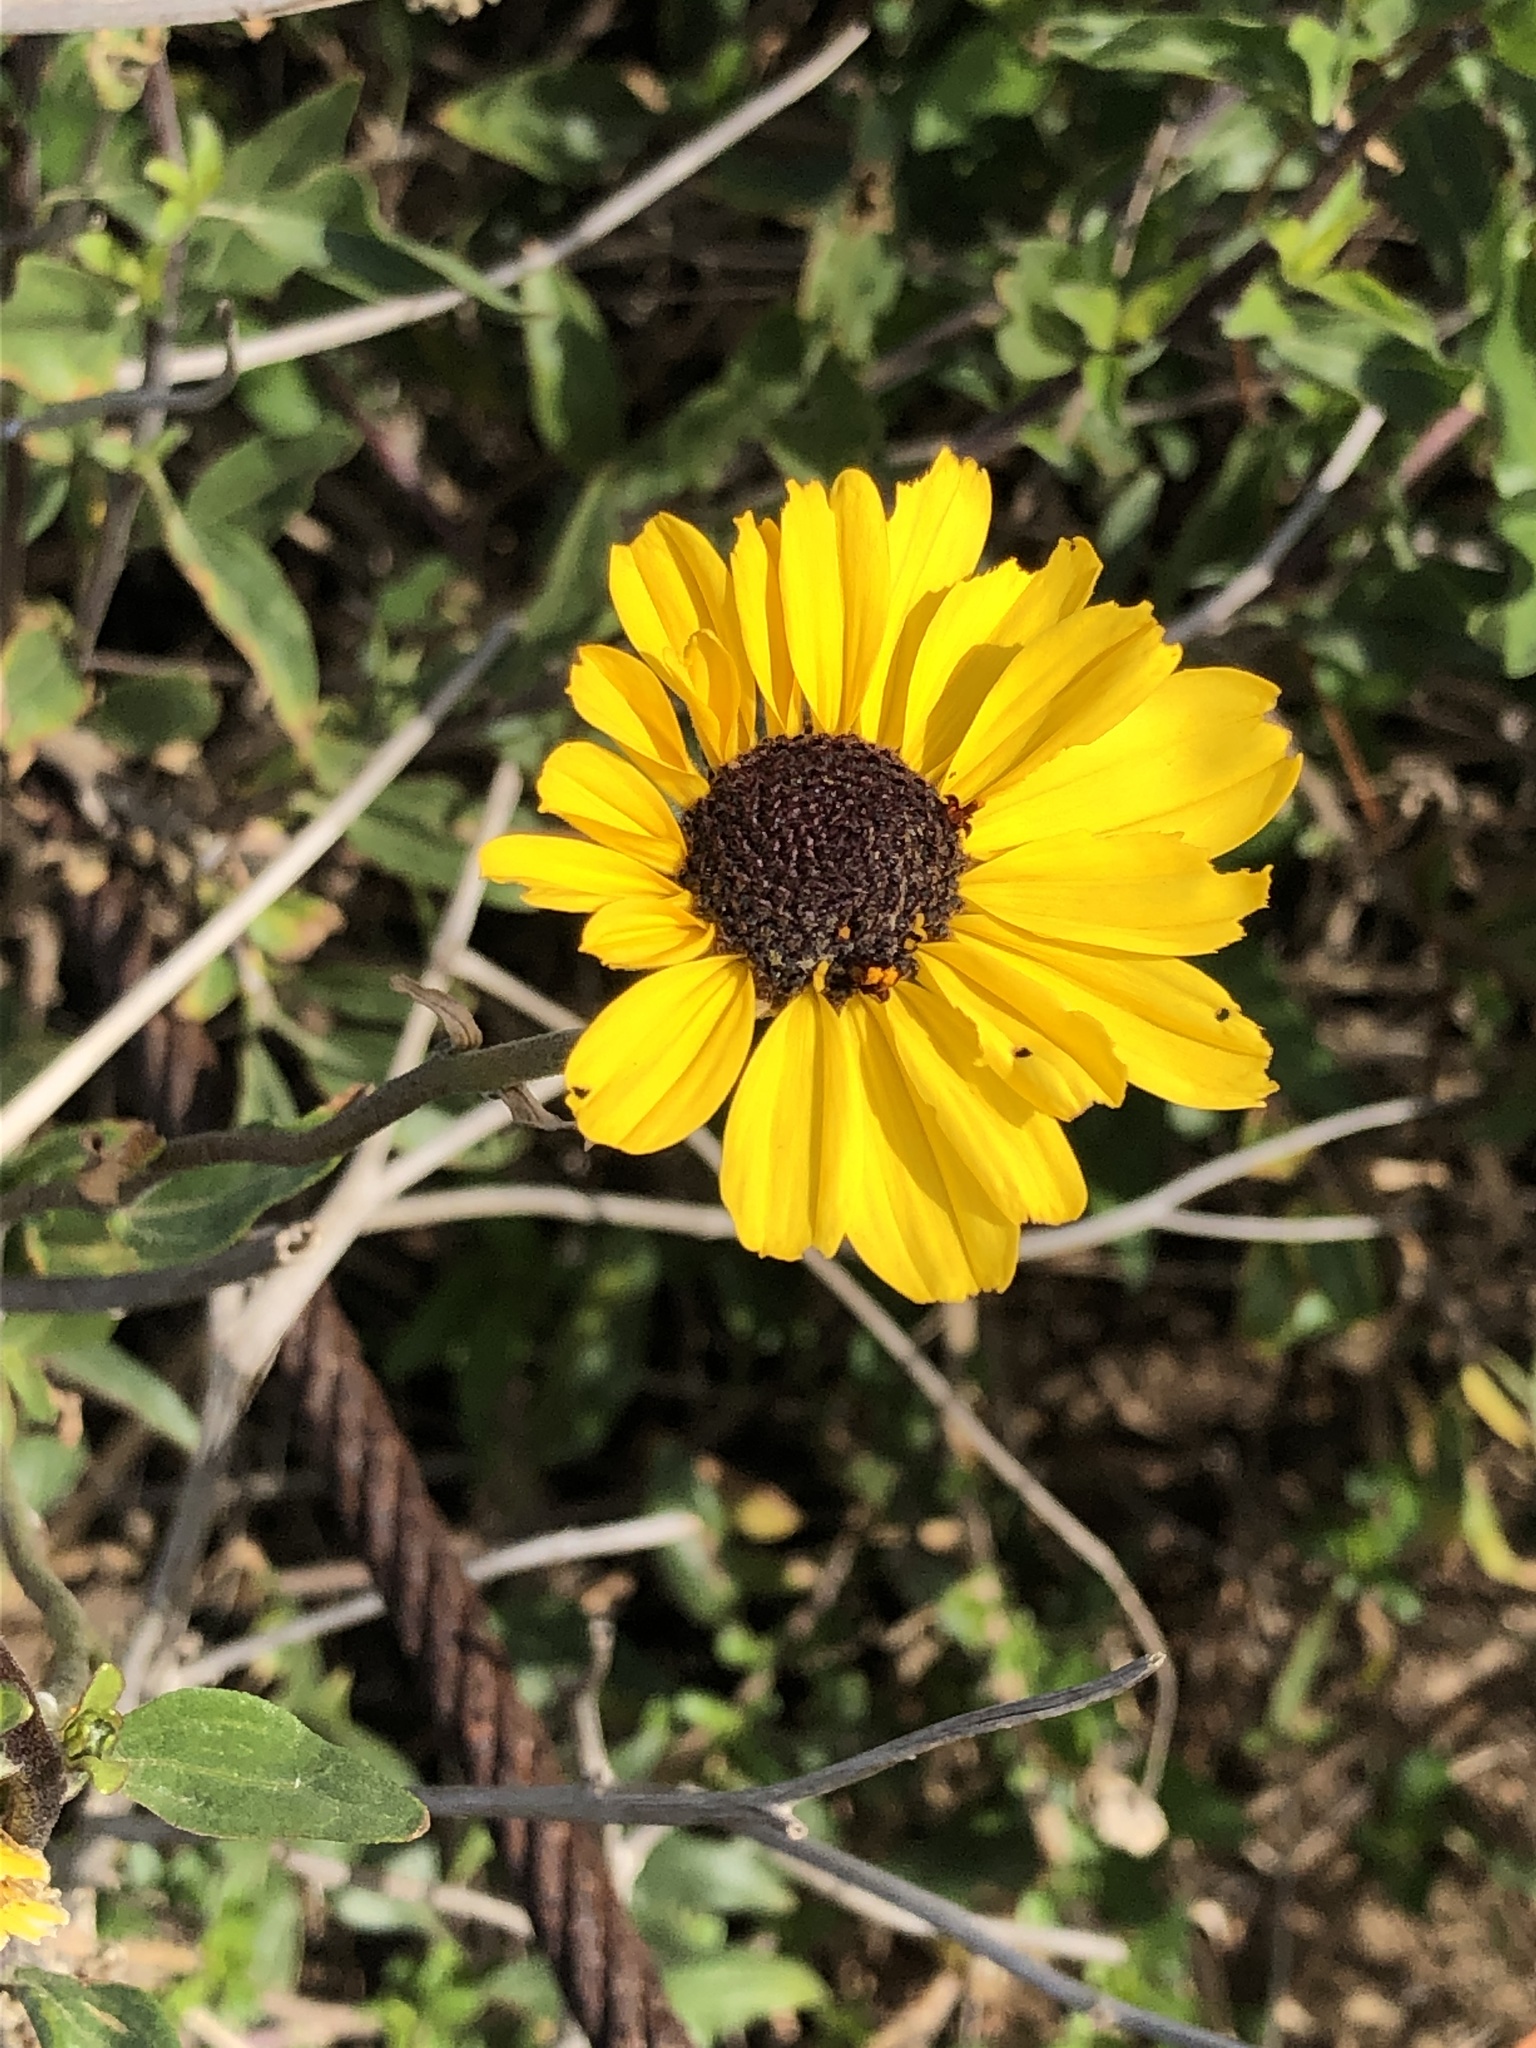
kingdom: Plantae
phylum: Tracheophyta
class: Magnoliopsida
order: Asterales
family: Asteraceae
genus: Encelia
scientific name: Encelia californica
